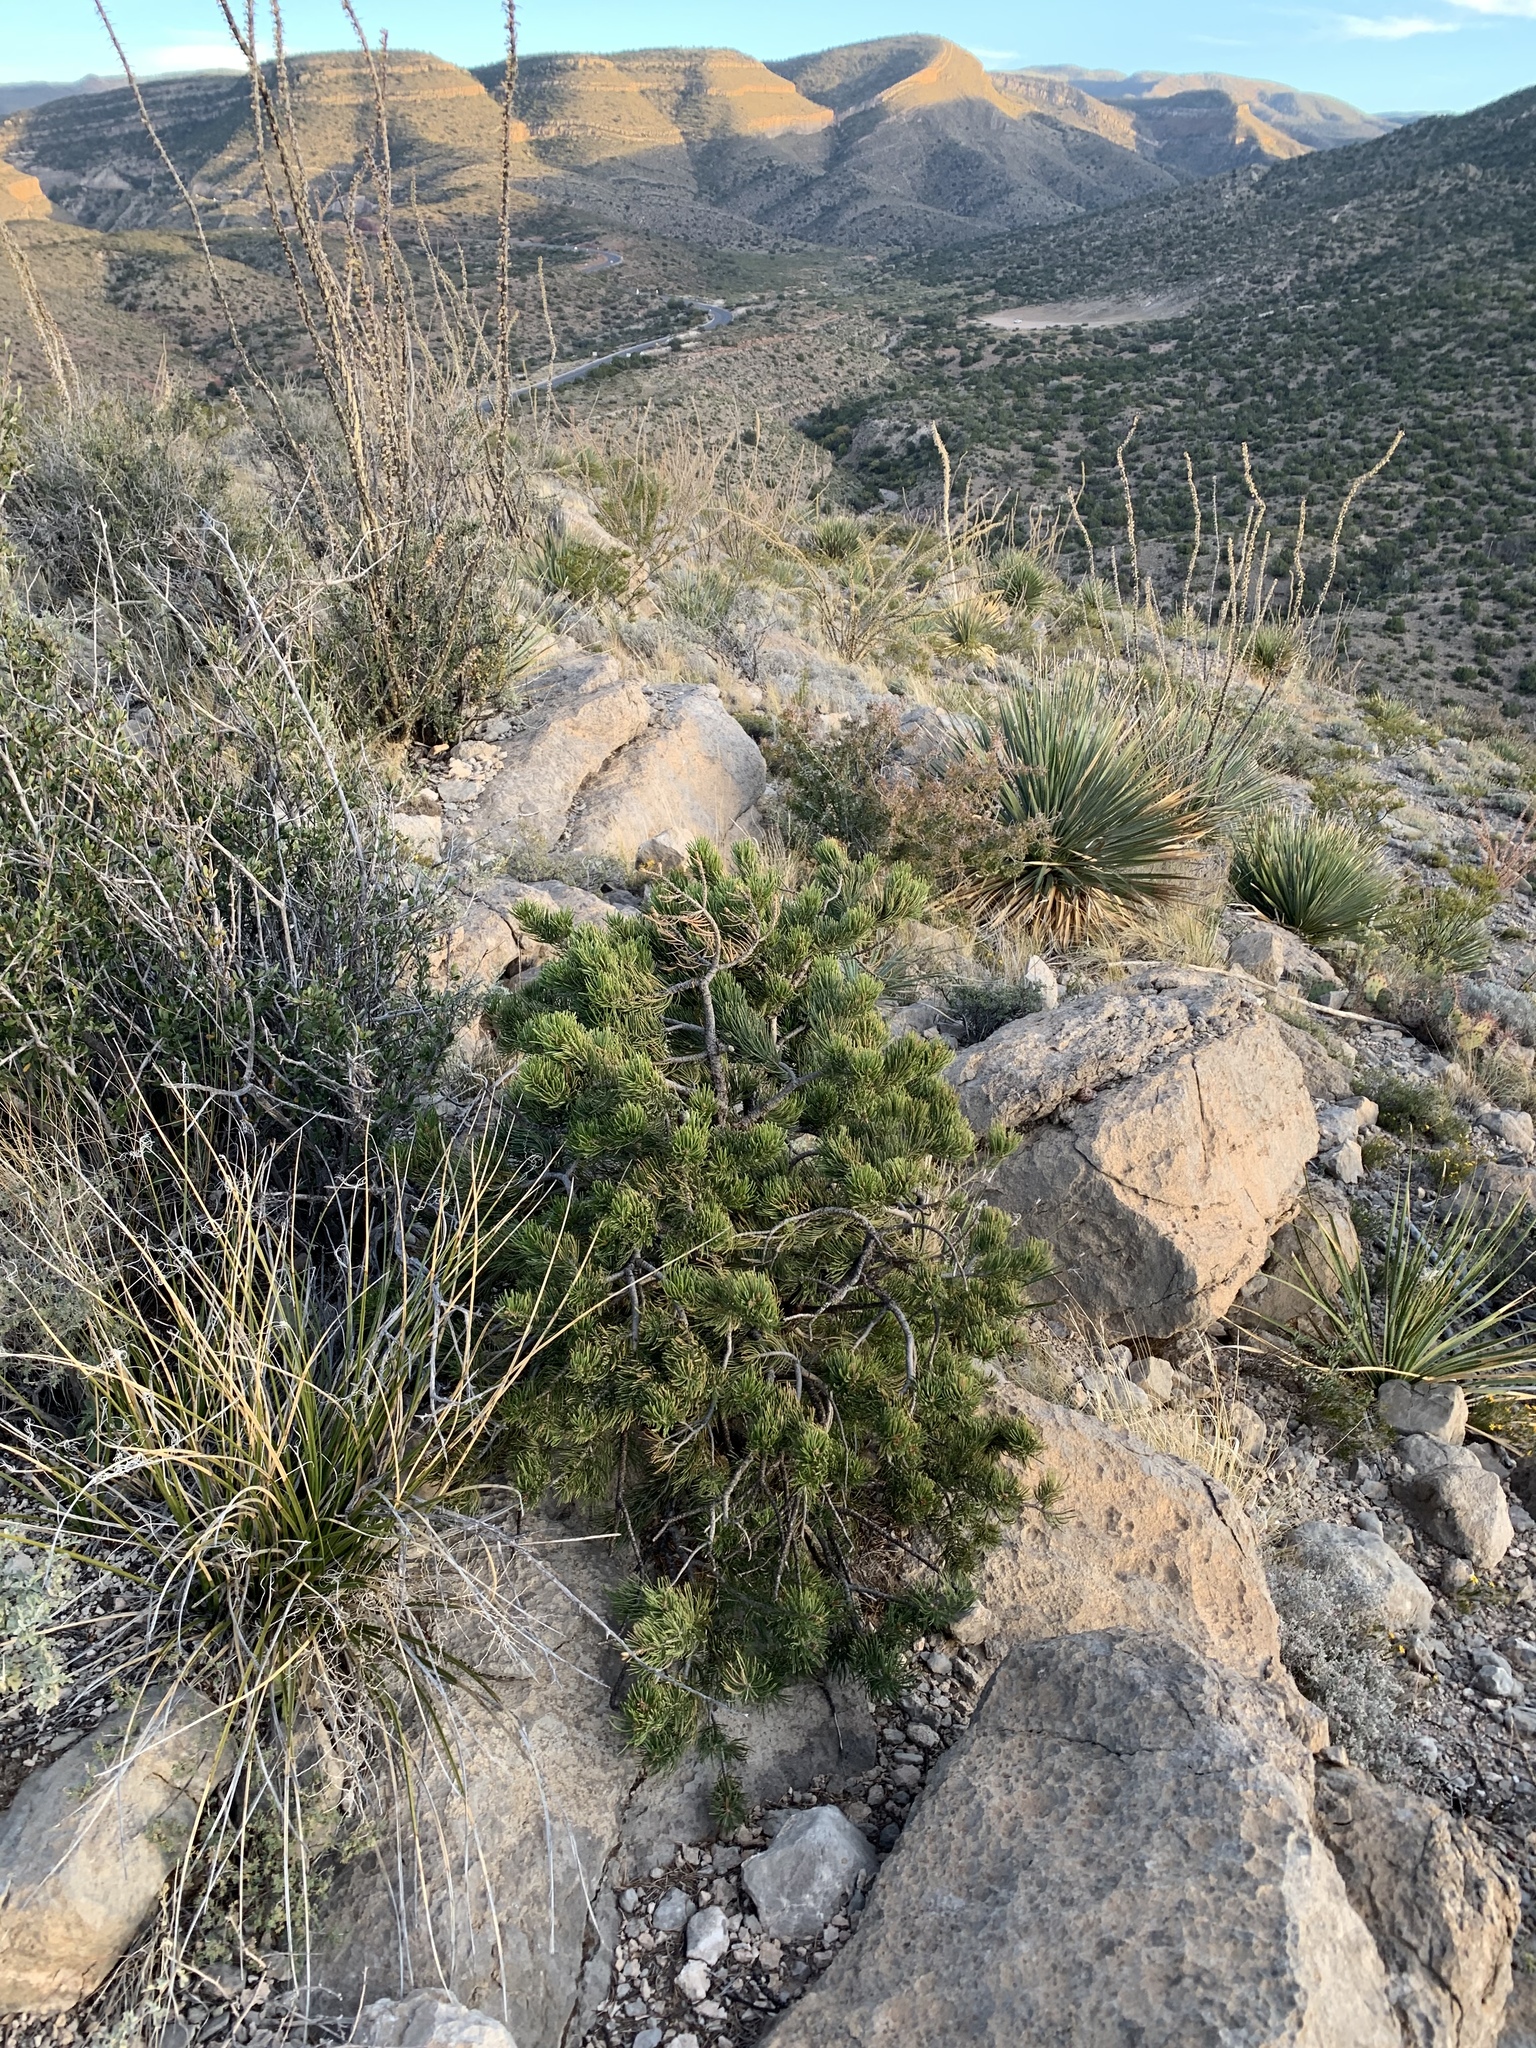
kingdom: Plantae
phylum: Tracheophyta
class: Pinopsida
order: Pinales
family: Pinaceae
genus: Pinus
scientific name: Pinus edulis
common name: Colorado pinyon
